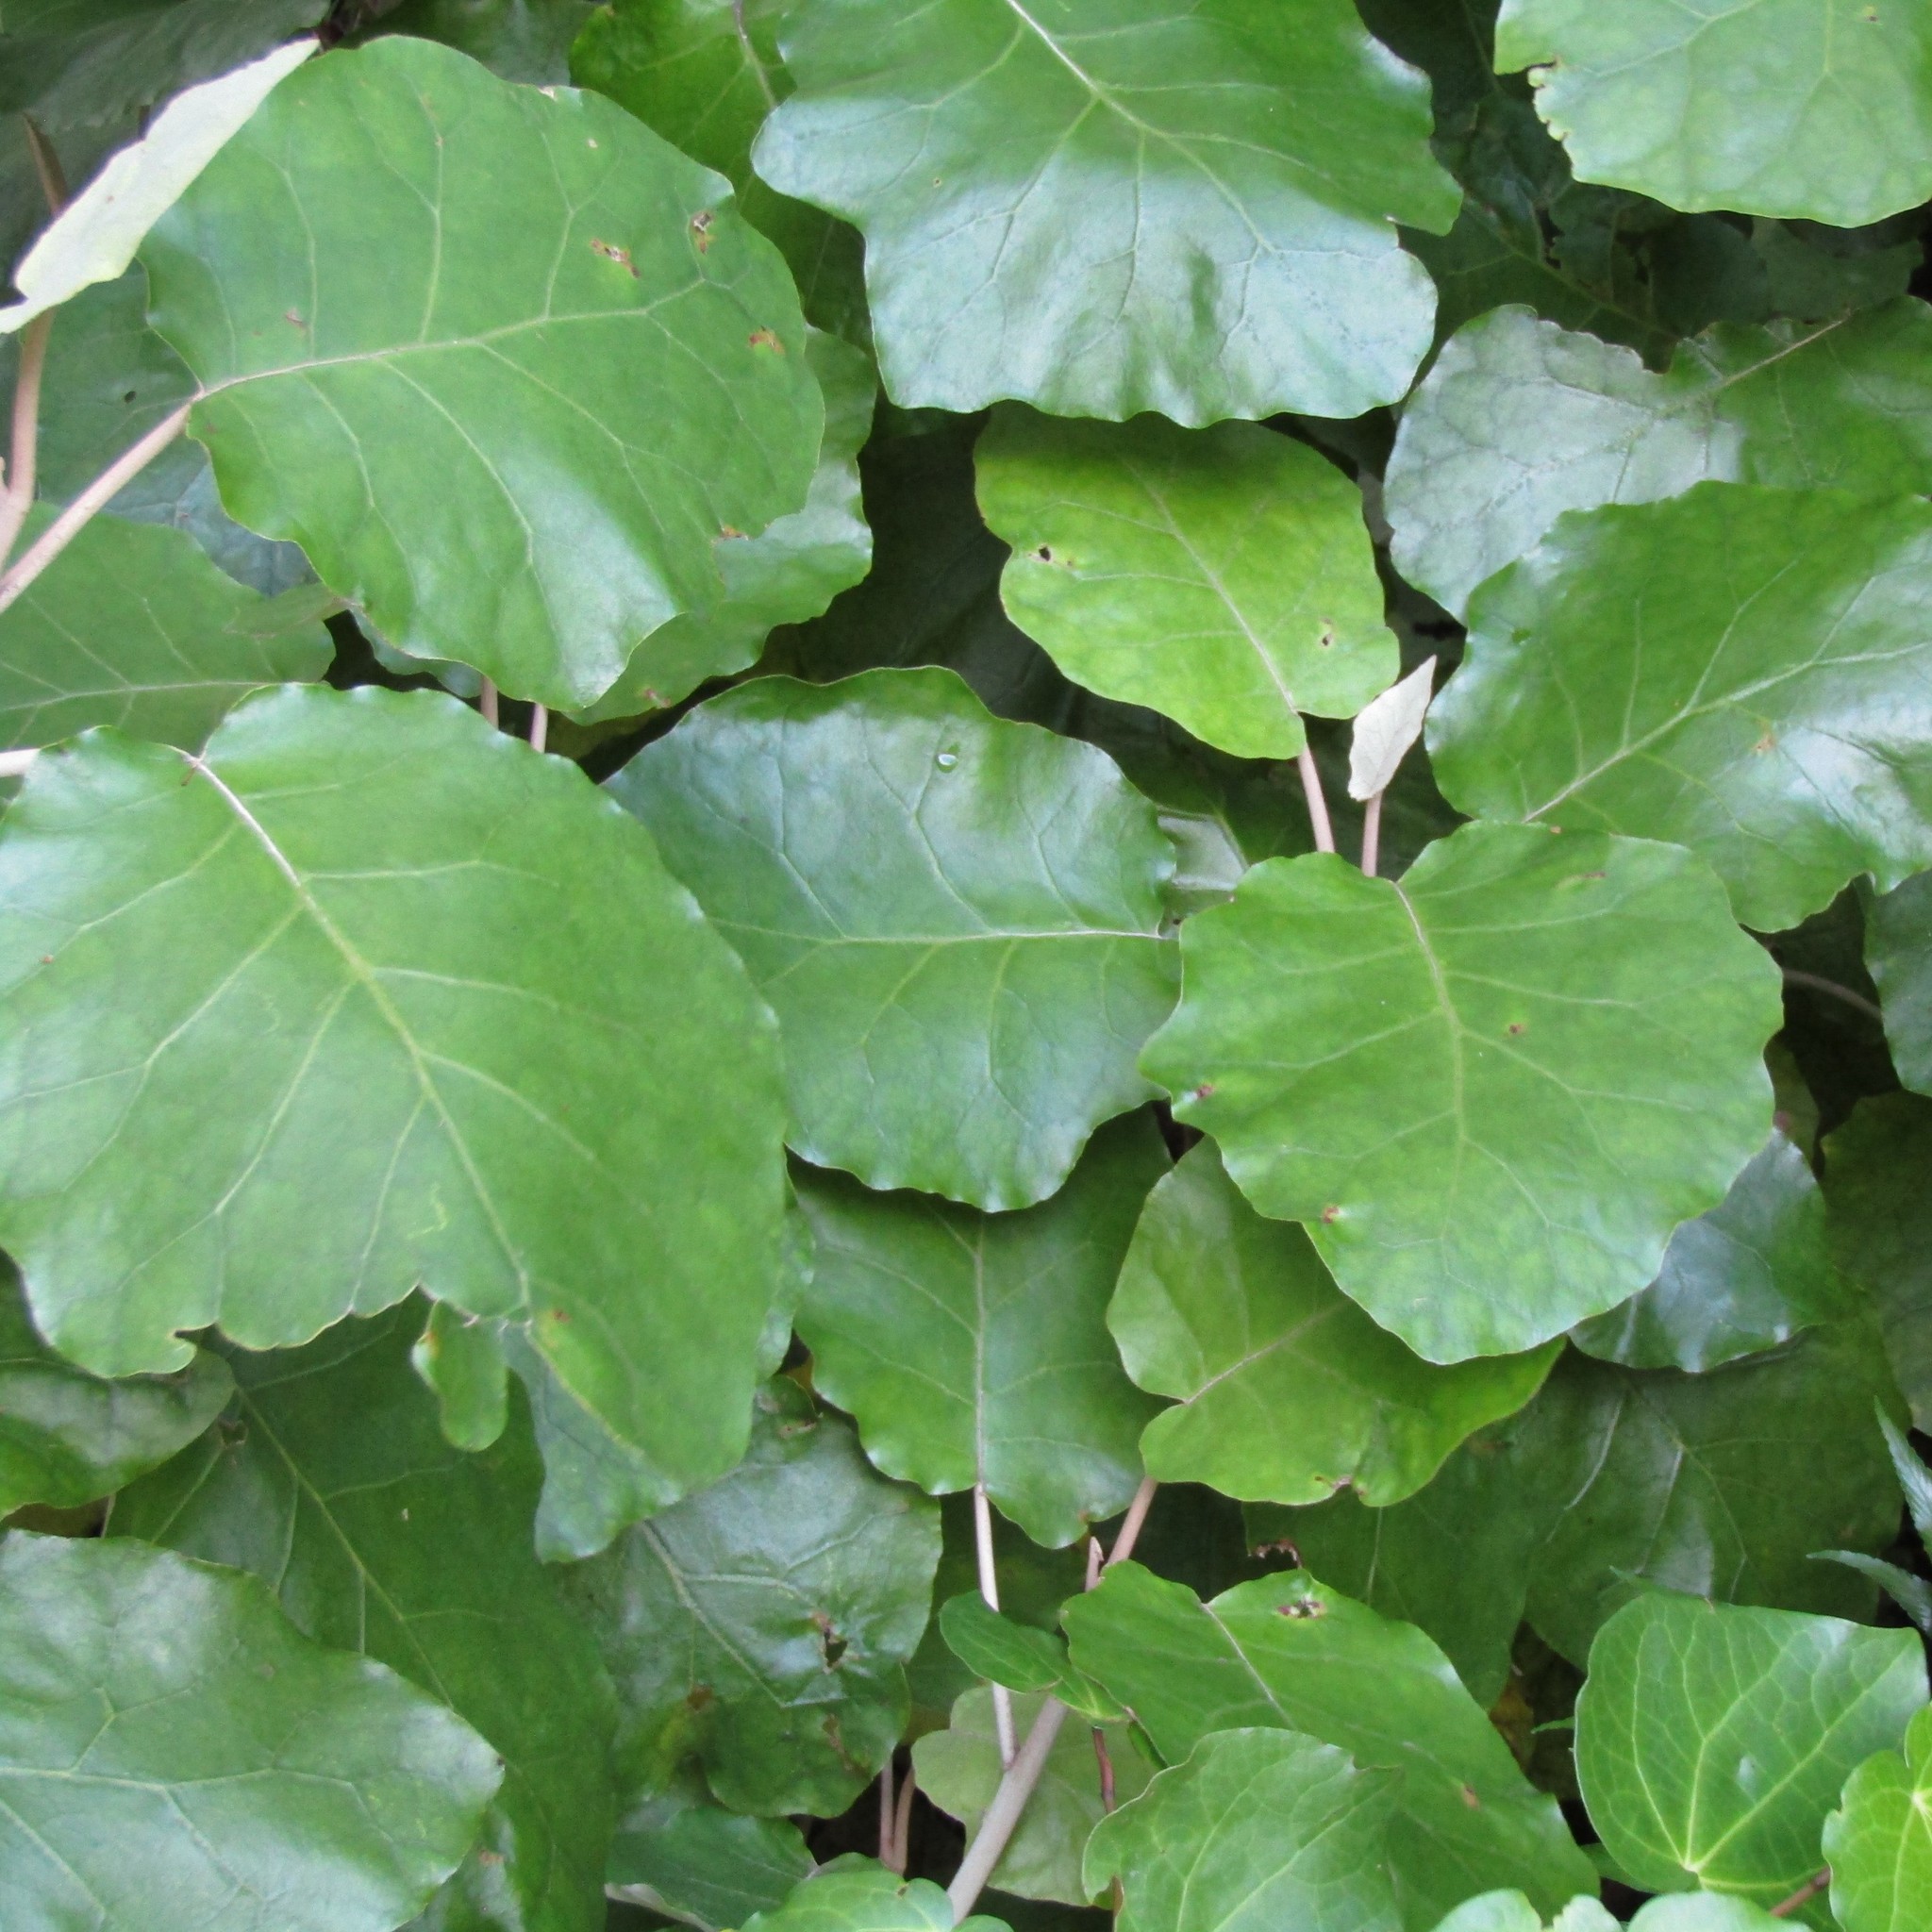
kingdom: Plantae
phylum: Tracheophyta
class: Magnoliopsida
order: Asterales
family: Asteraceae
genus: Brachyglottis
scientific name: Brachyglottis repanda
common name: Hedge ragwort
